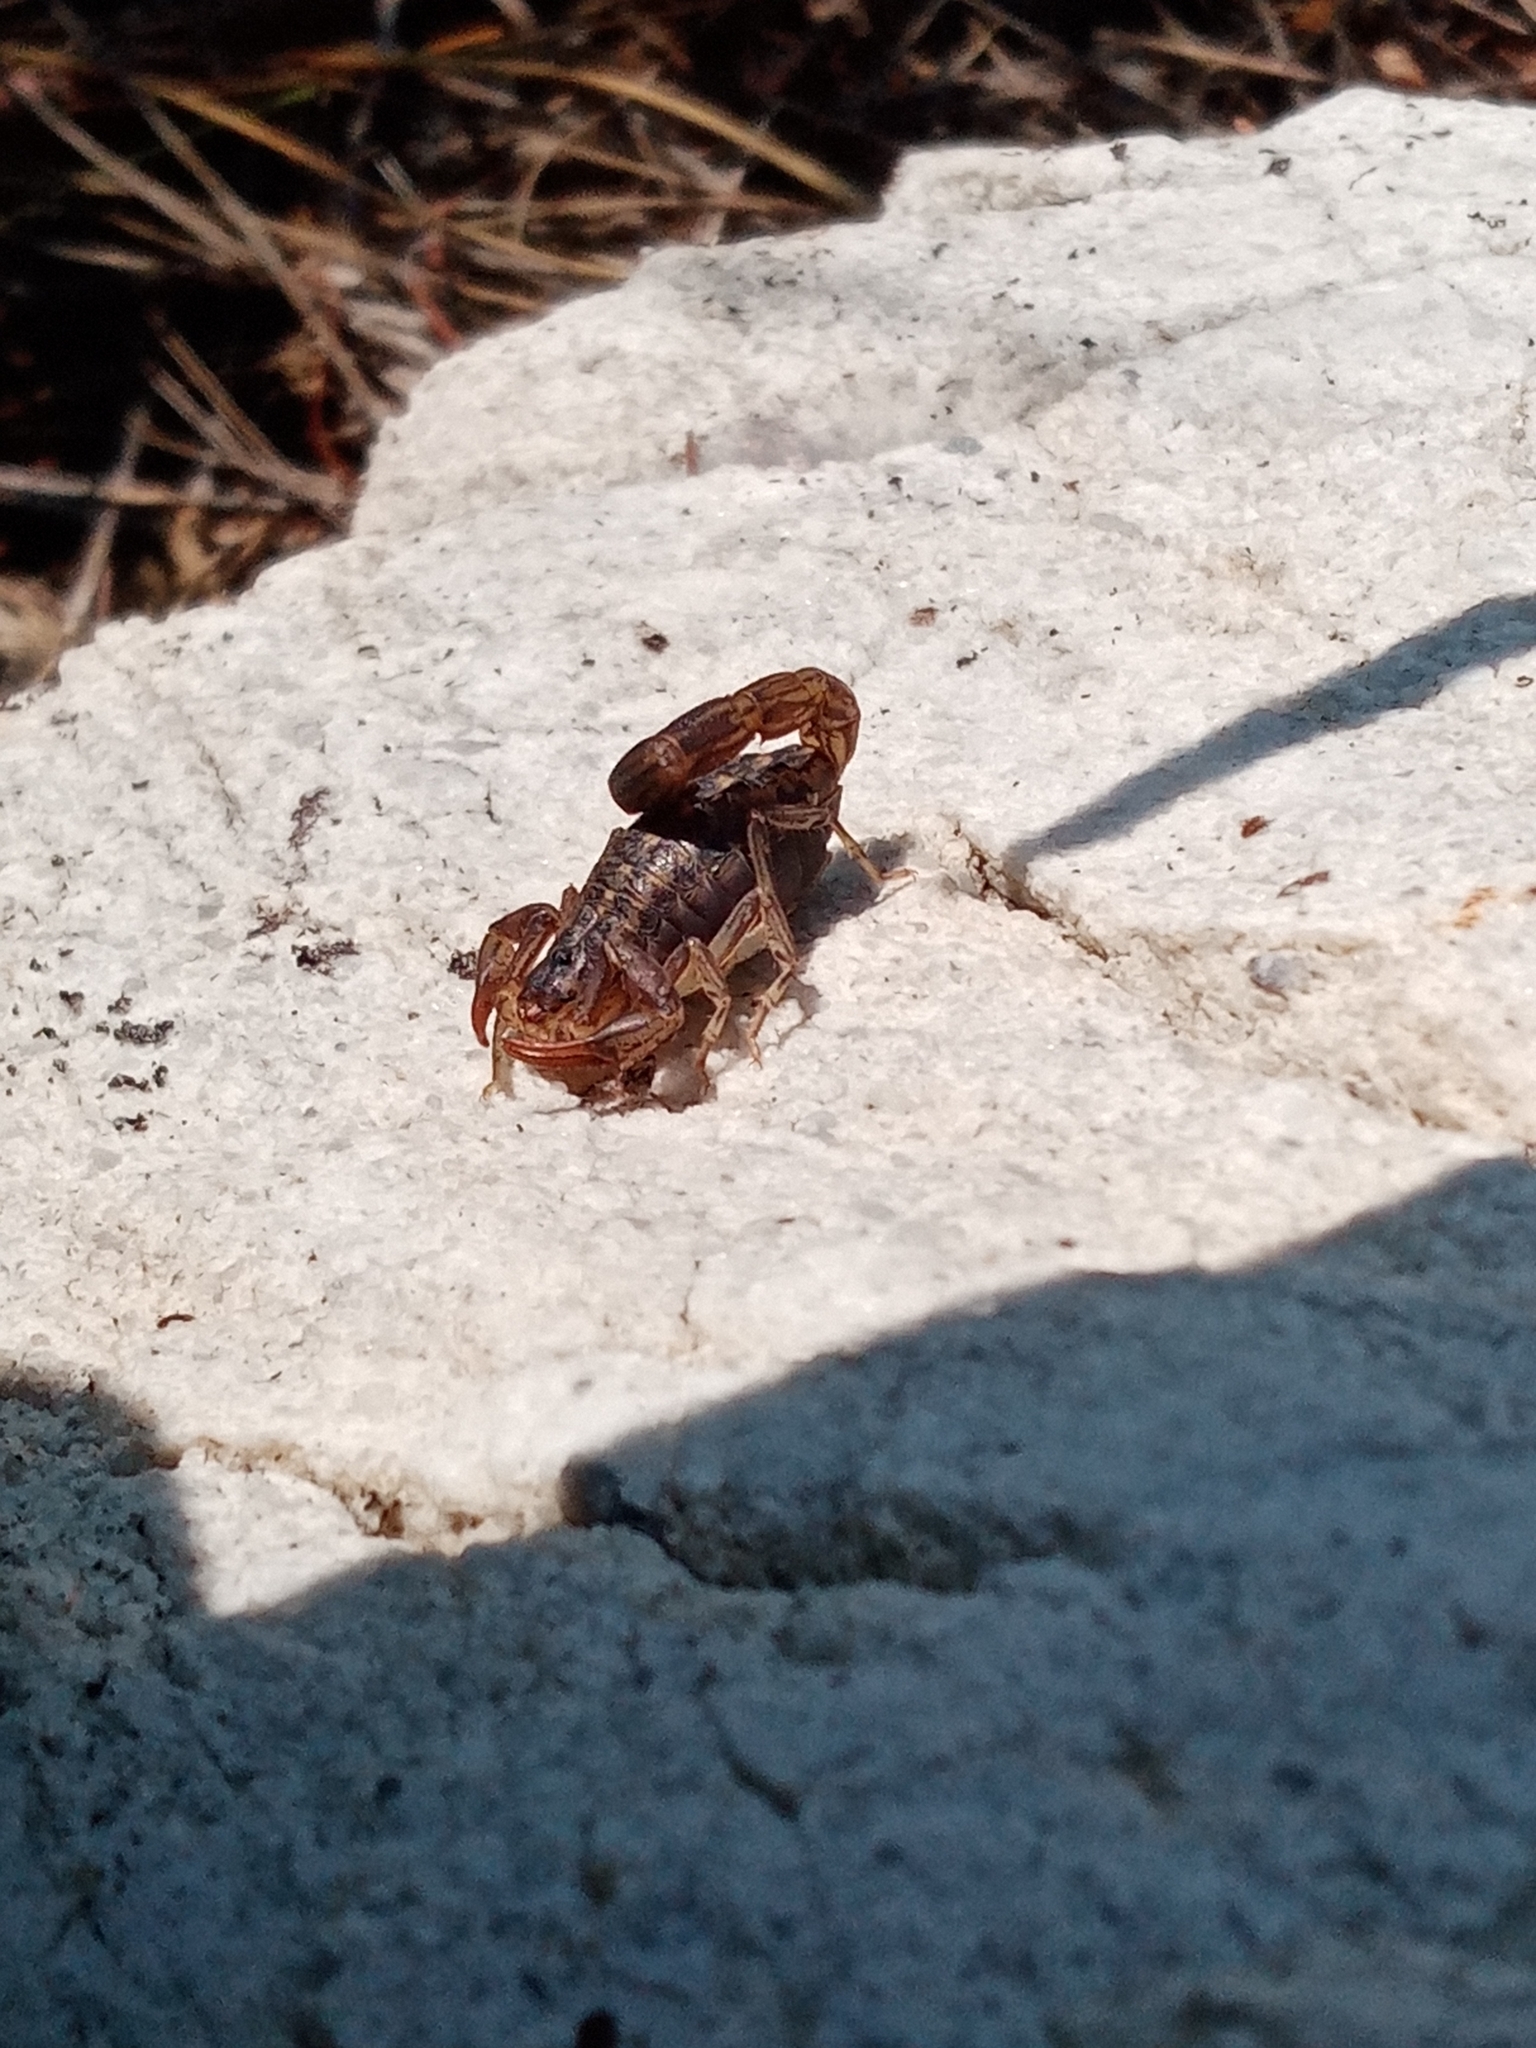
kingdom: Animalia
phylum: Arthropoda
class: Arachnida
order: Scorpiones
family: Buthidae
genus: Uroplectes
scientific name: Uroplectes lineatus
